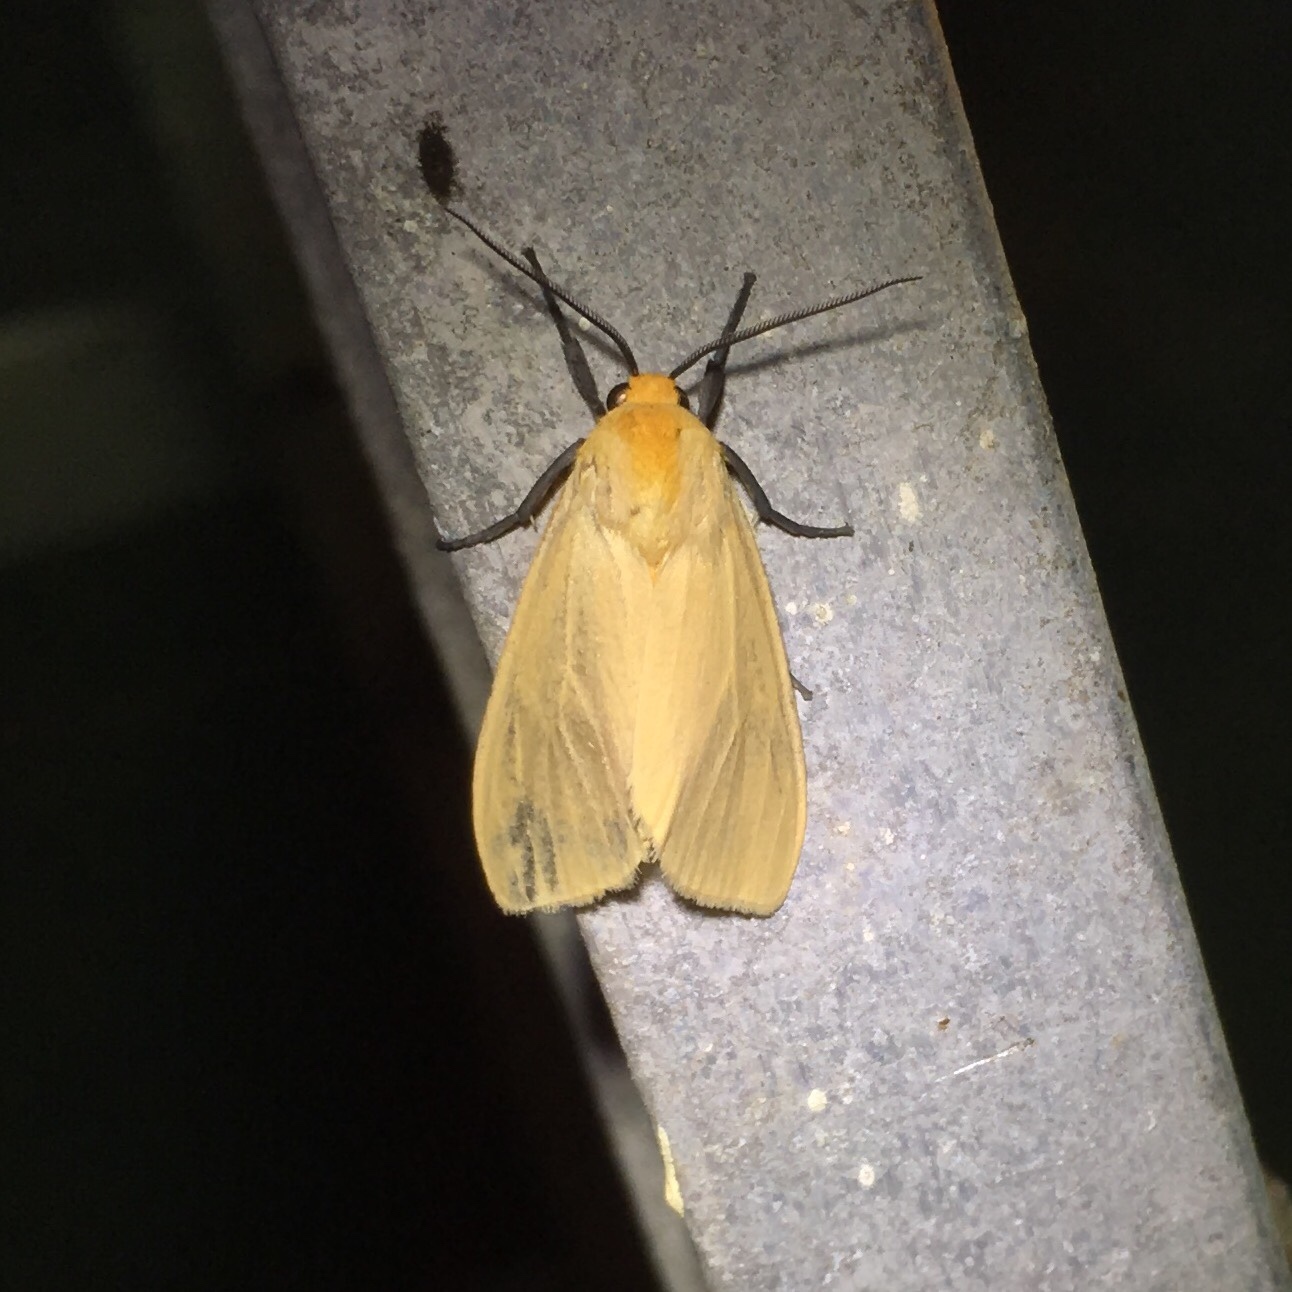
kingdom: Animalia
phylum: Arthropoda
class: Insecta
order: Lepidoptera
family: Erebidae
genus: Pareuchaetes
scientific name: Pareuchaetes insulata
